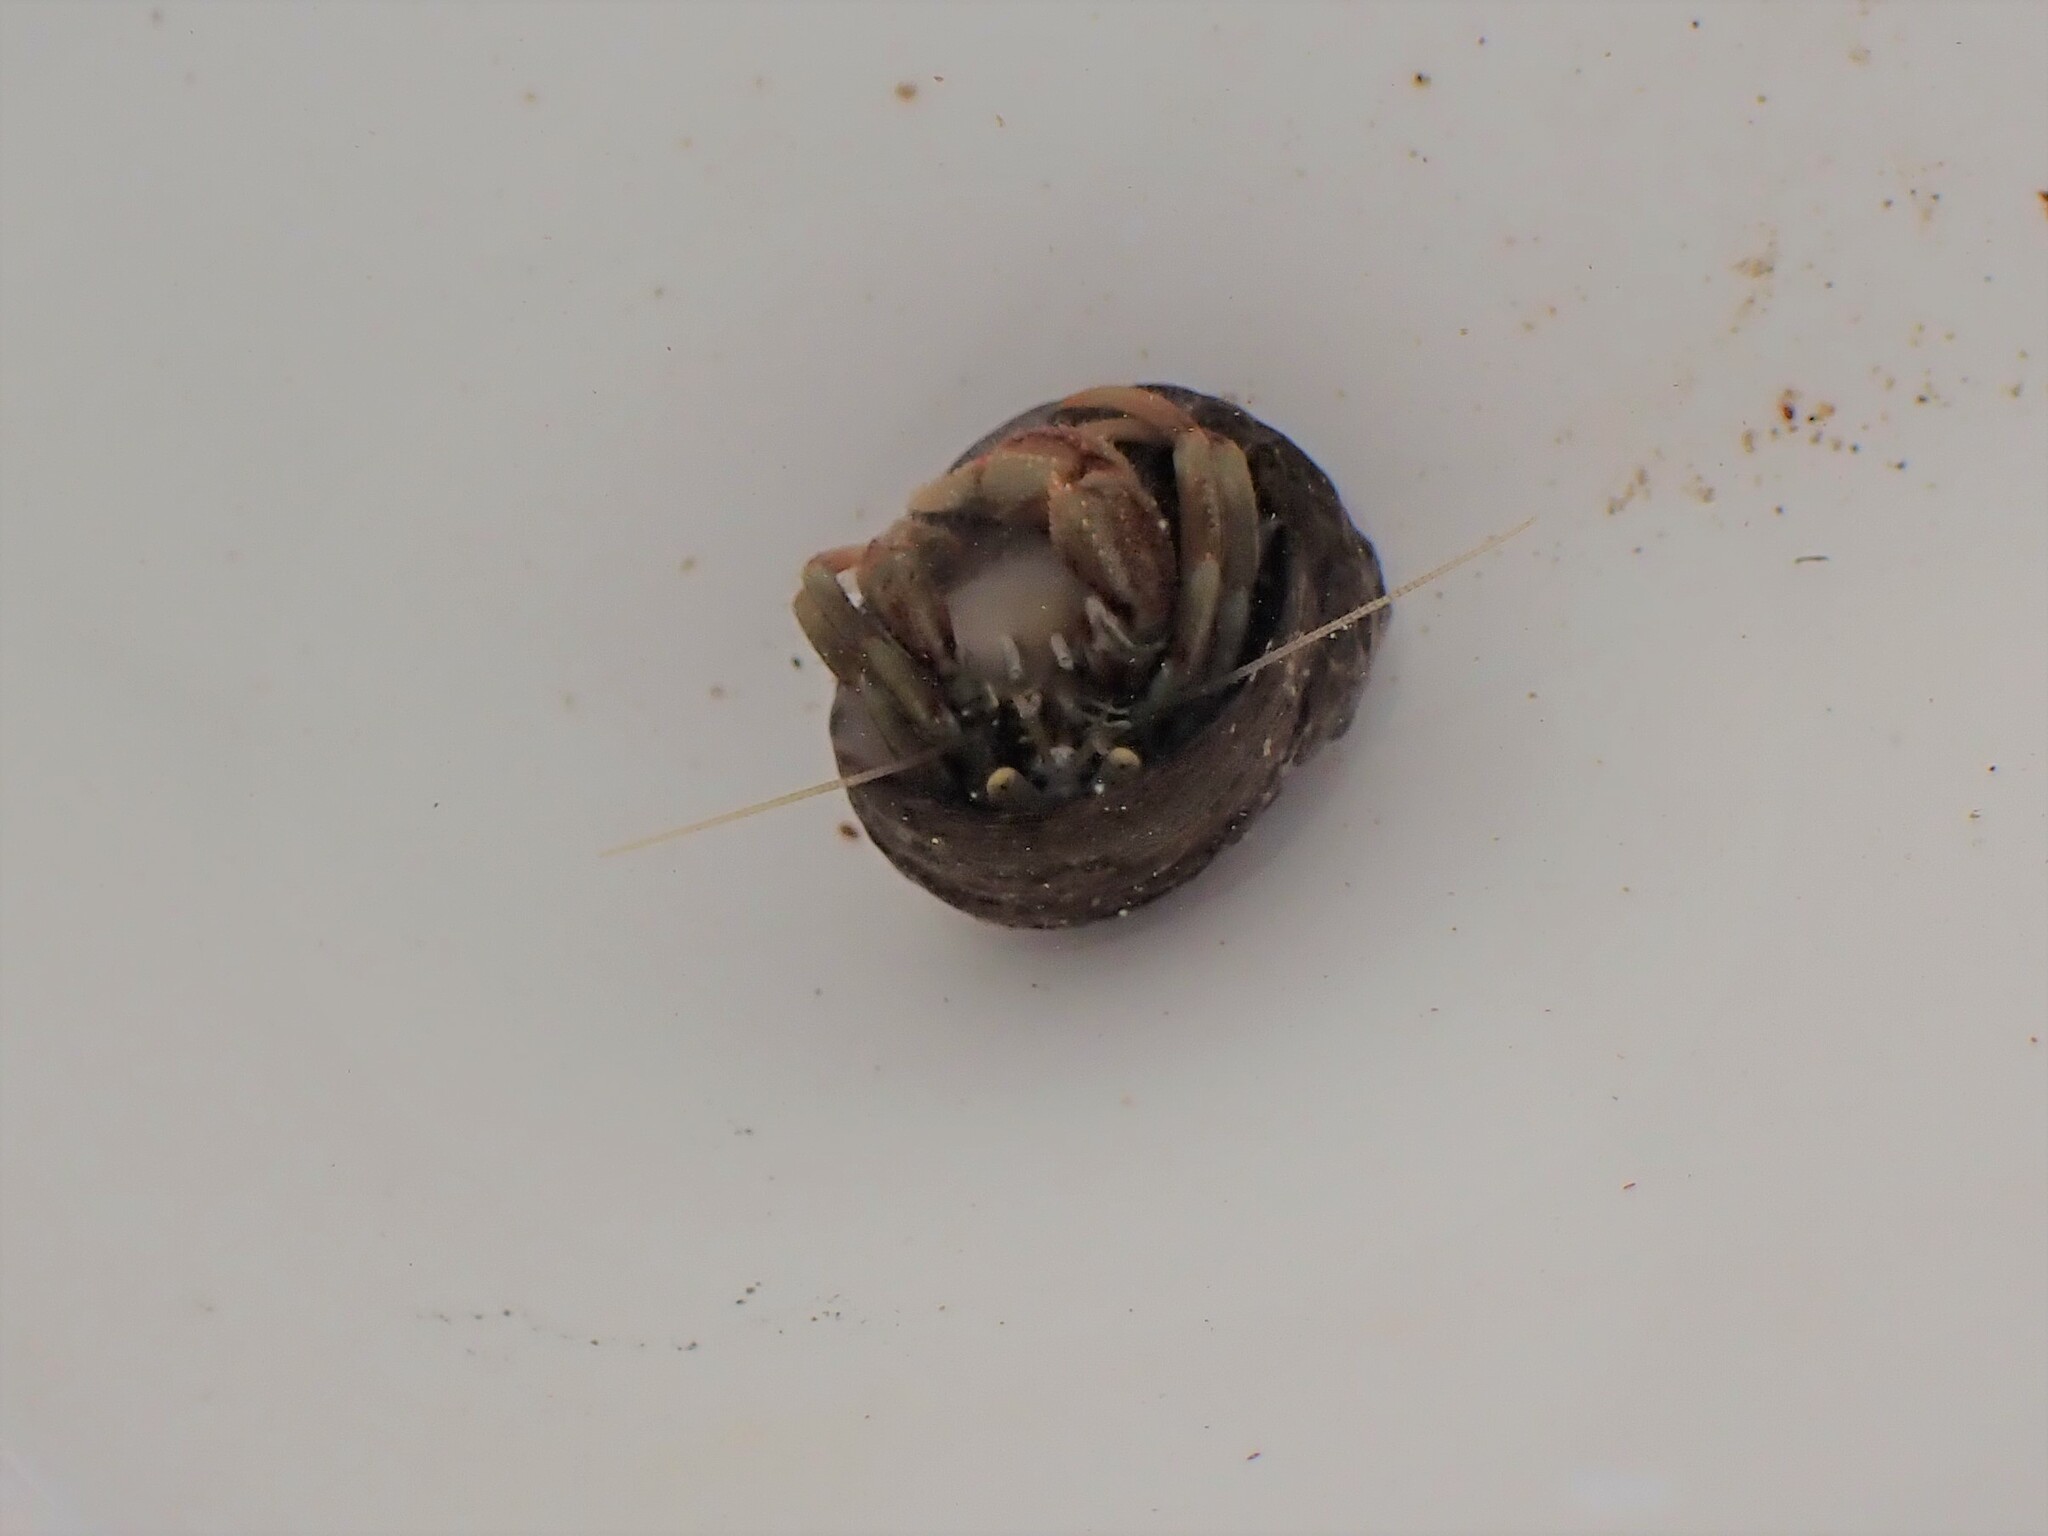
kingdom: Animalia
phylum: Arthropoda
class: Malacostraca
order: Decapoda
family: Paguridae
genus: Pagurus
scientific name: Pagurus bernhardus
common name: Hermit crab
